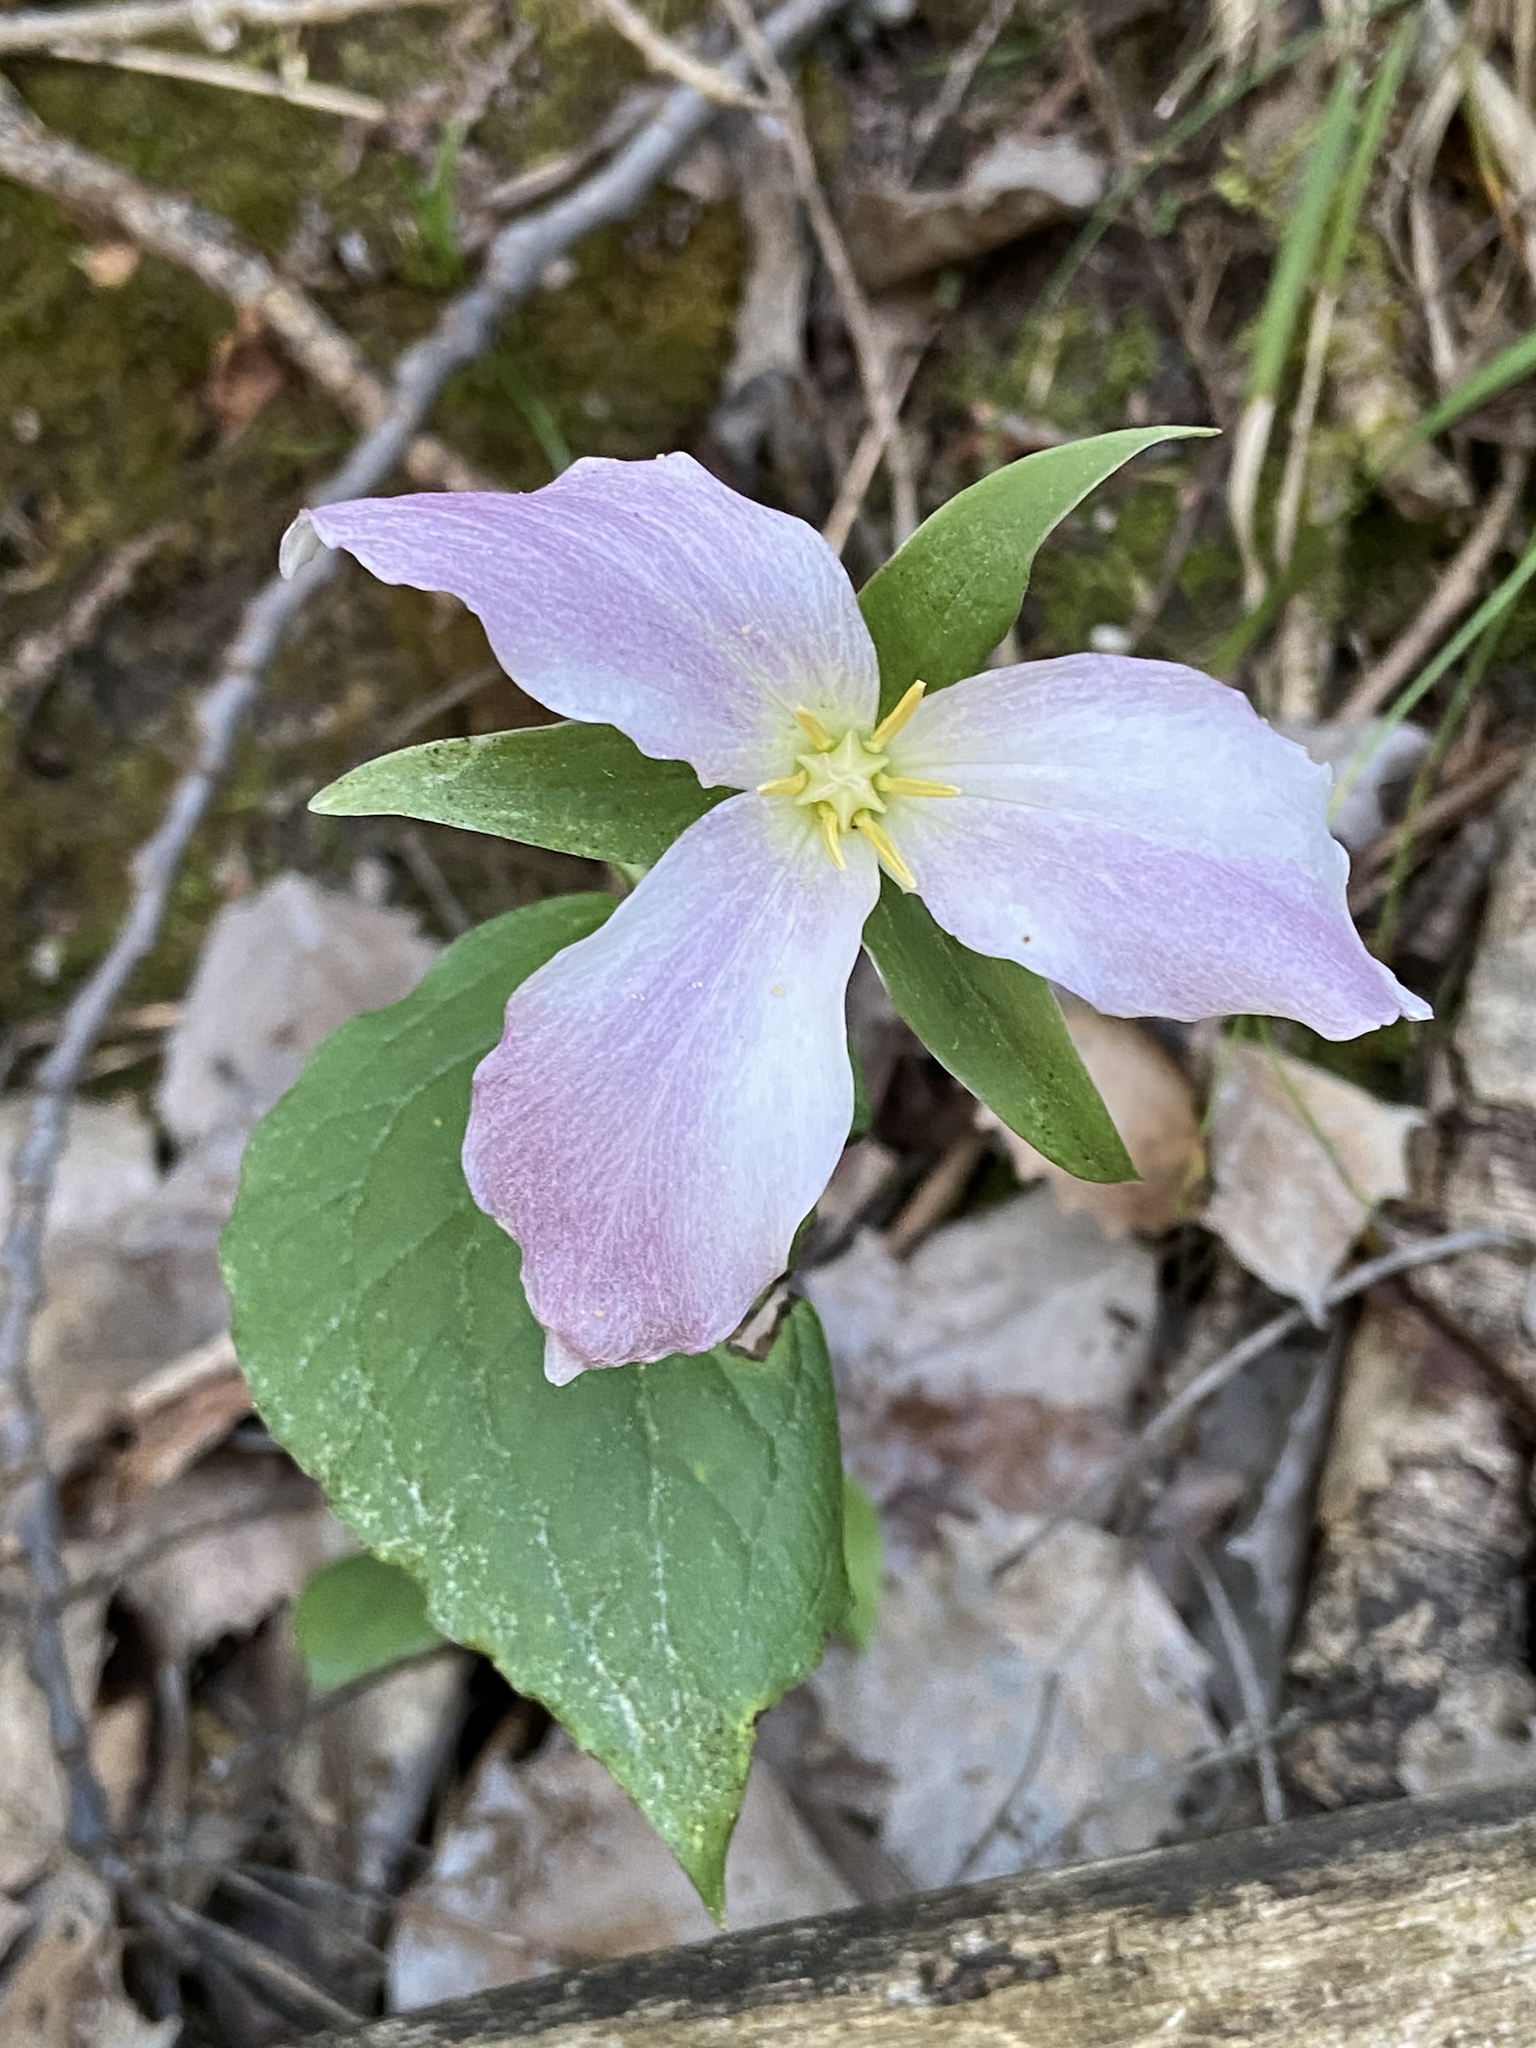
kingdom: Plantae
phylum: Tracheophyta
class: Liliopsida
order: Liliales
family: Melanthiaceae
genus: Trillium
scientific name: Trillium grandiflorum
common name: Great white trillium
